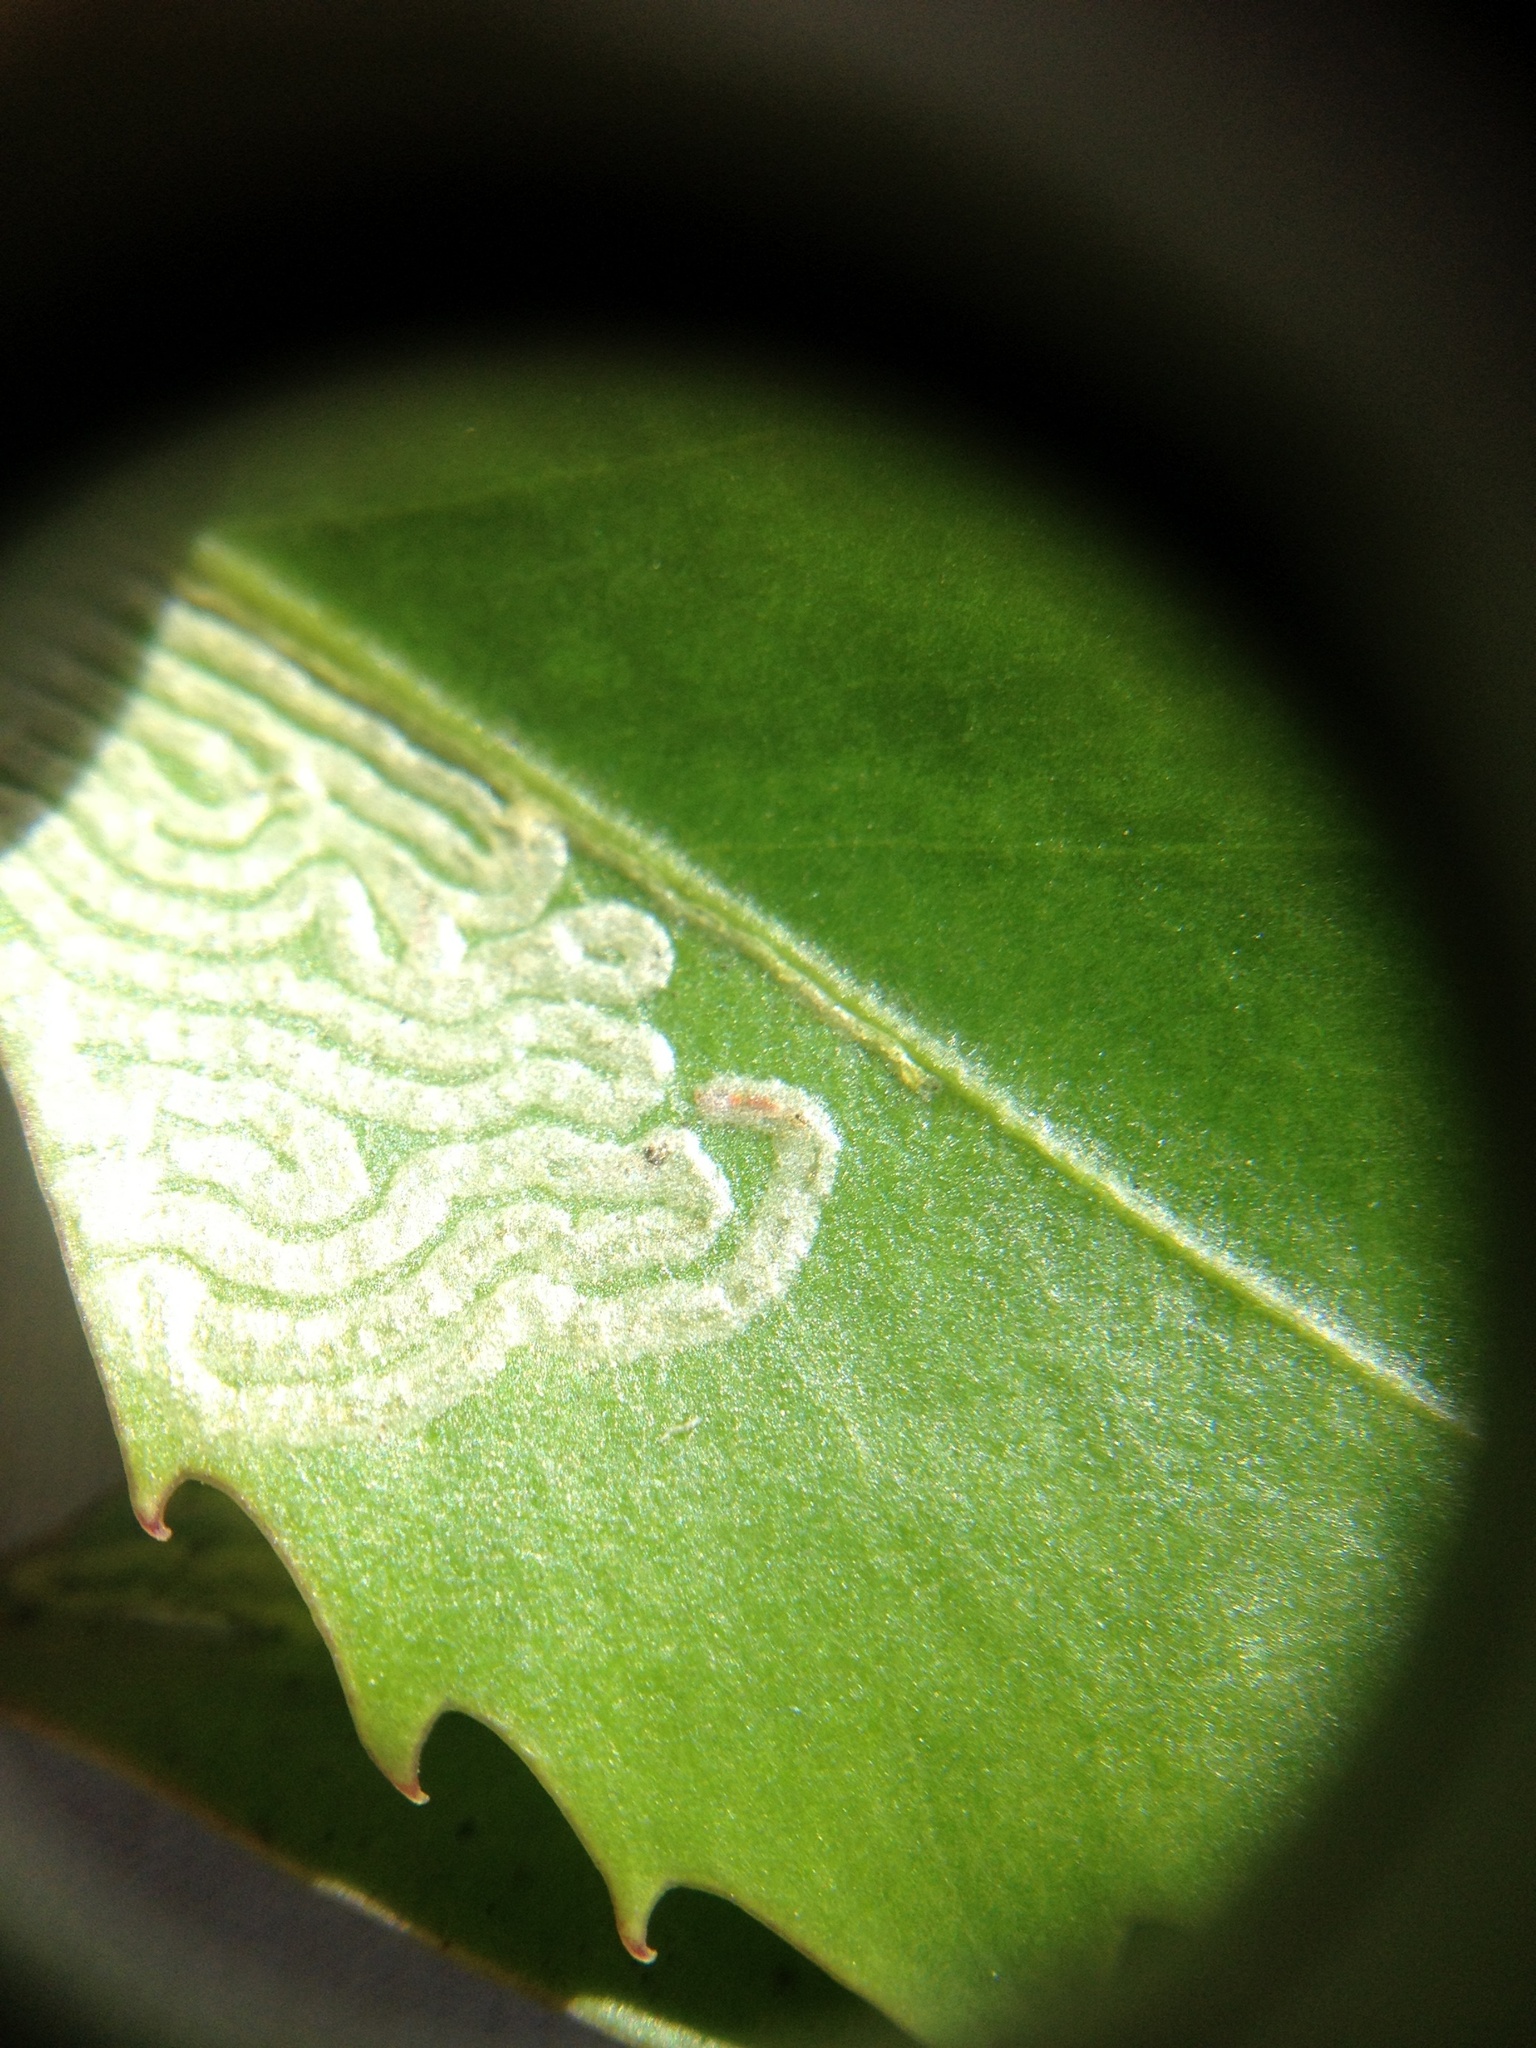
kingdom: Animalia
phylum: Arthropoda
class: Insecta
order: Lepidoptera
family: Gracillariidae
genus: Eumetriochroa
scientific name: Eumetriochroa panacivermiforma
